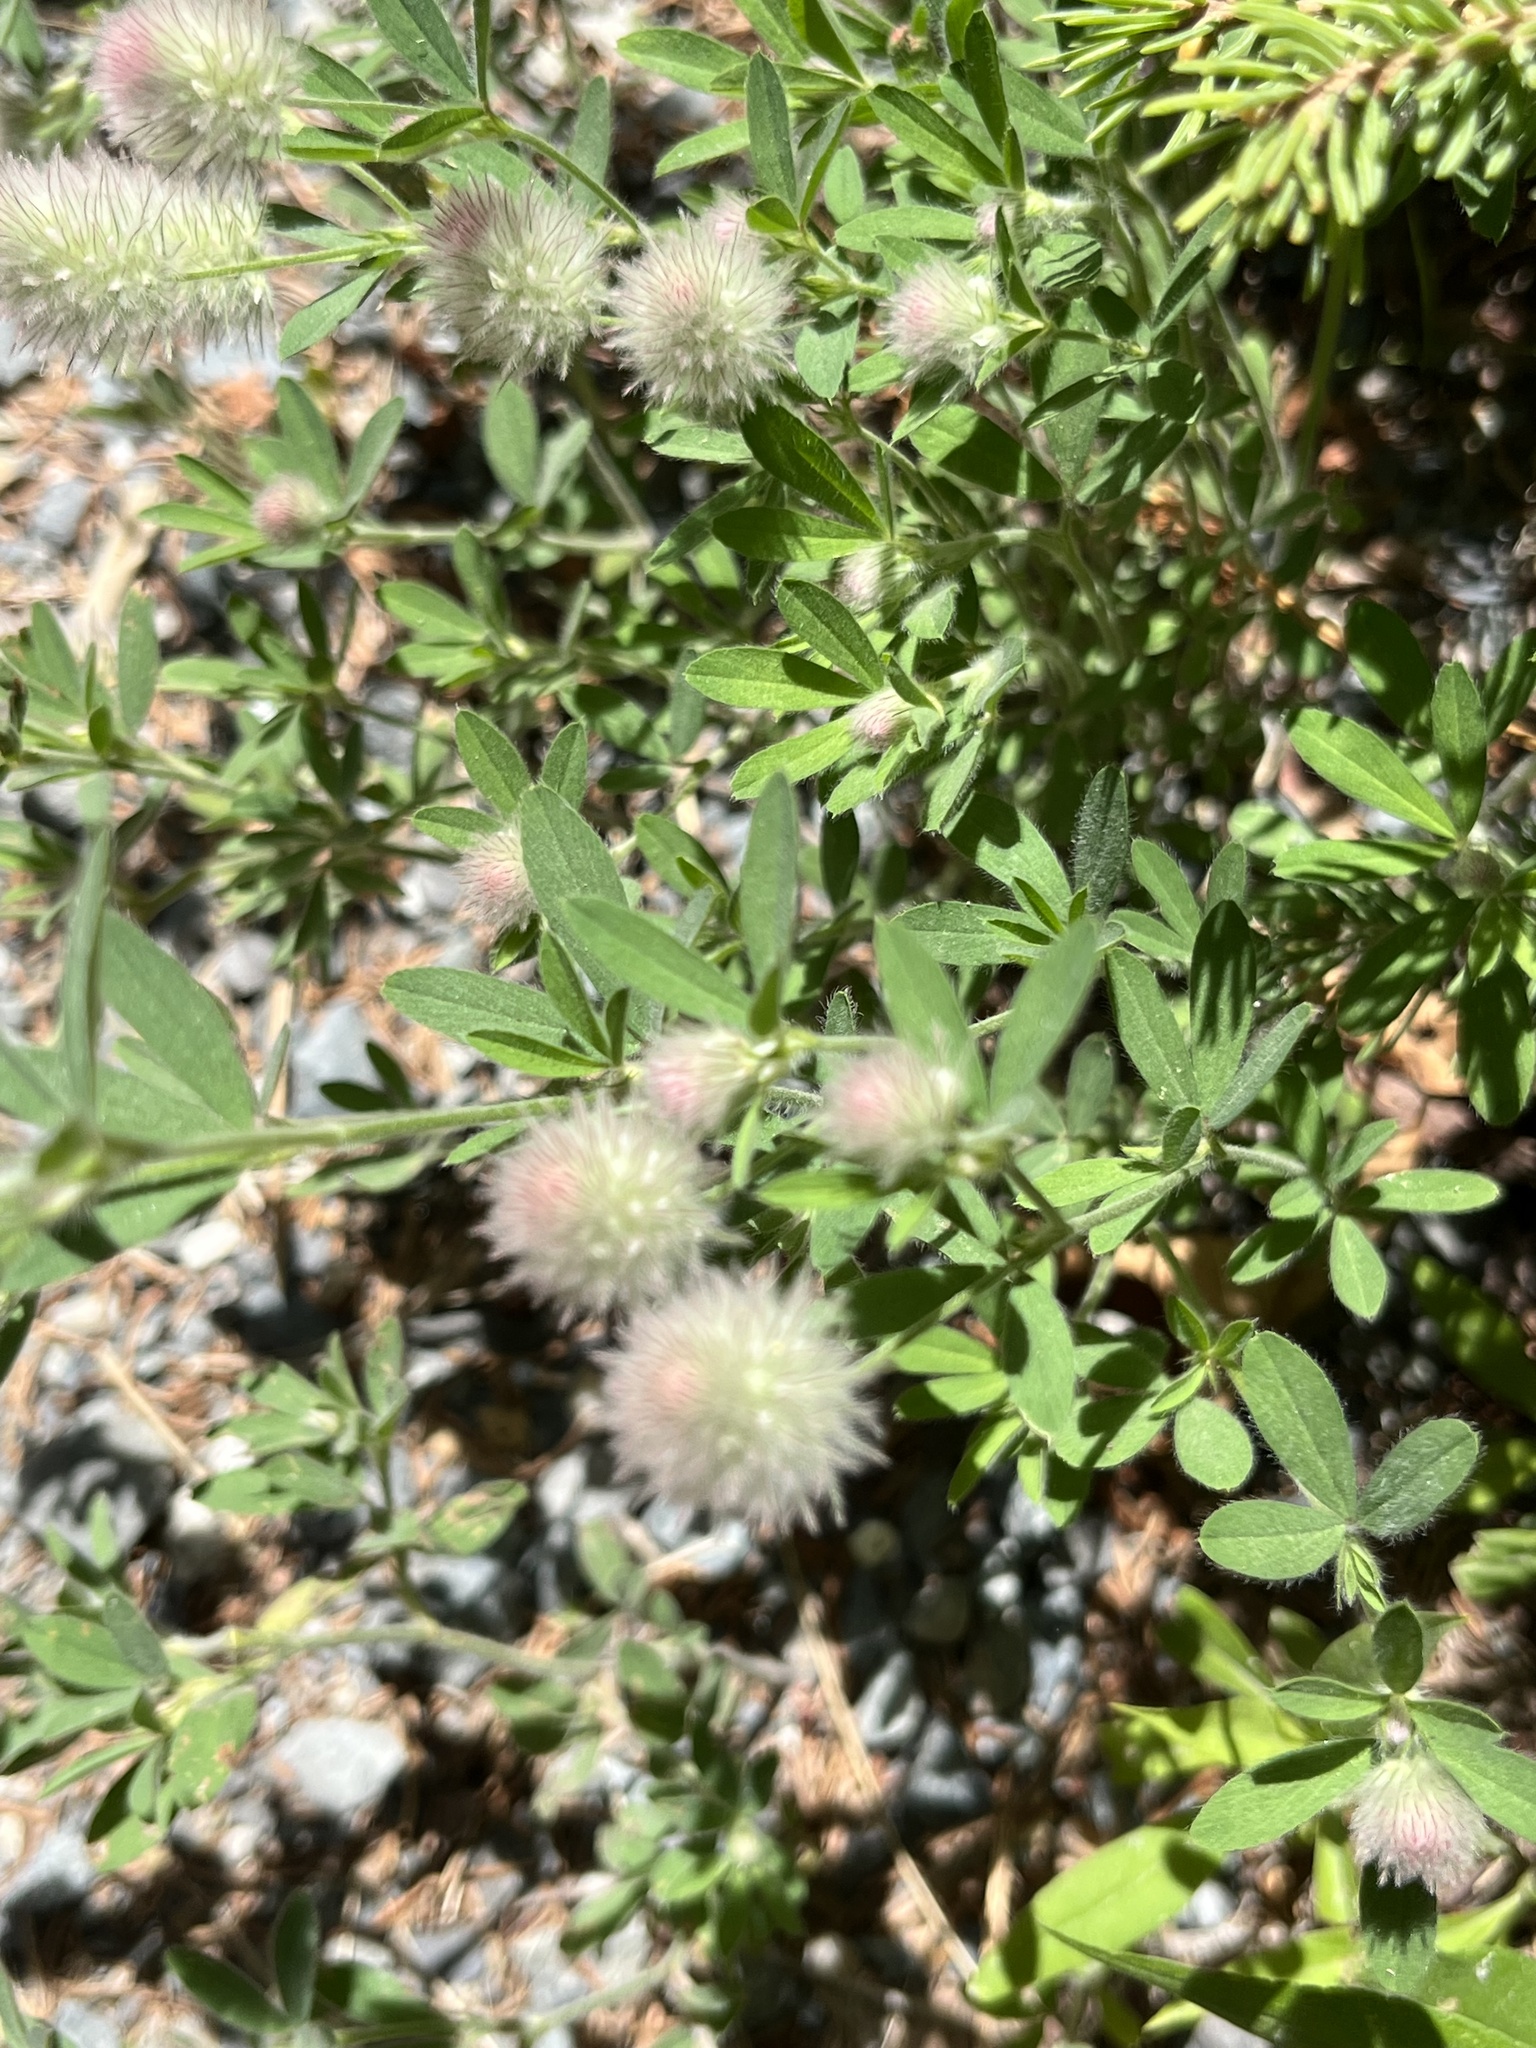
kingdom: Plantae
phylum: Tracheophyta
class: Magnoliopsida
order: Fabales
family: Fabaceae
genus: Trifolium
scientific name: Trifolium arvense
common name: Hare's-foot clover
